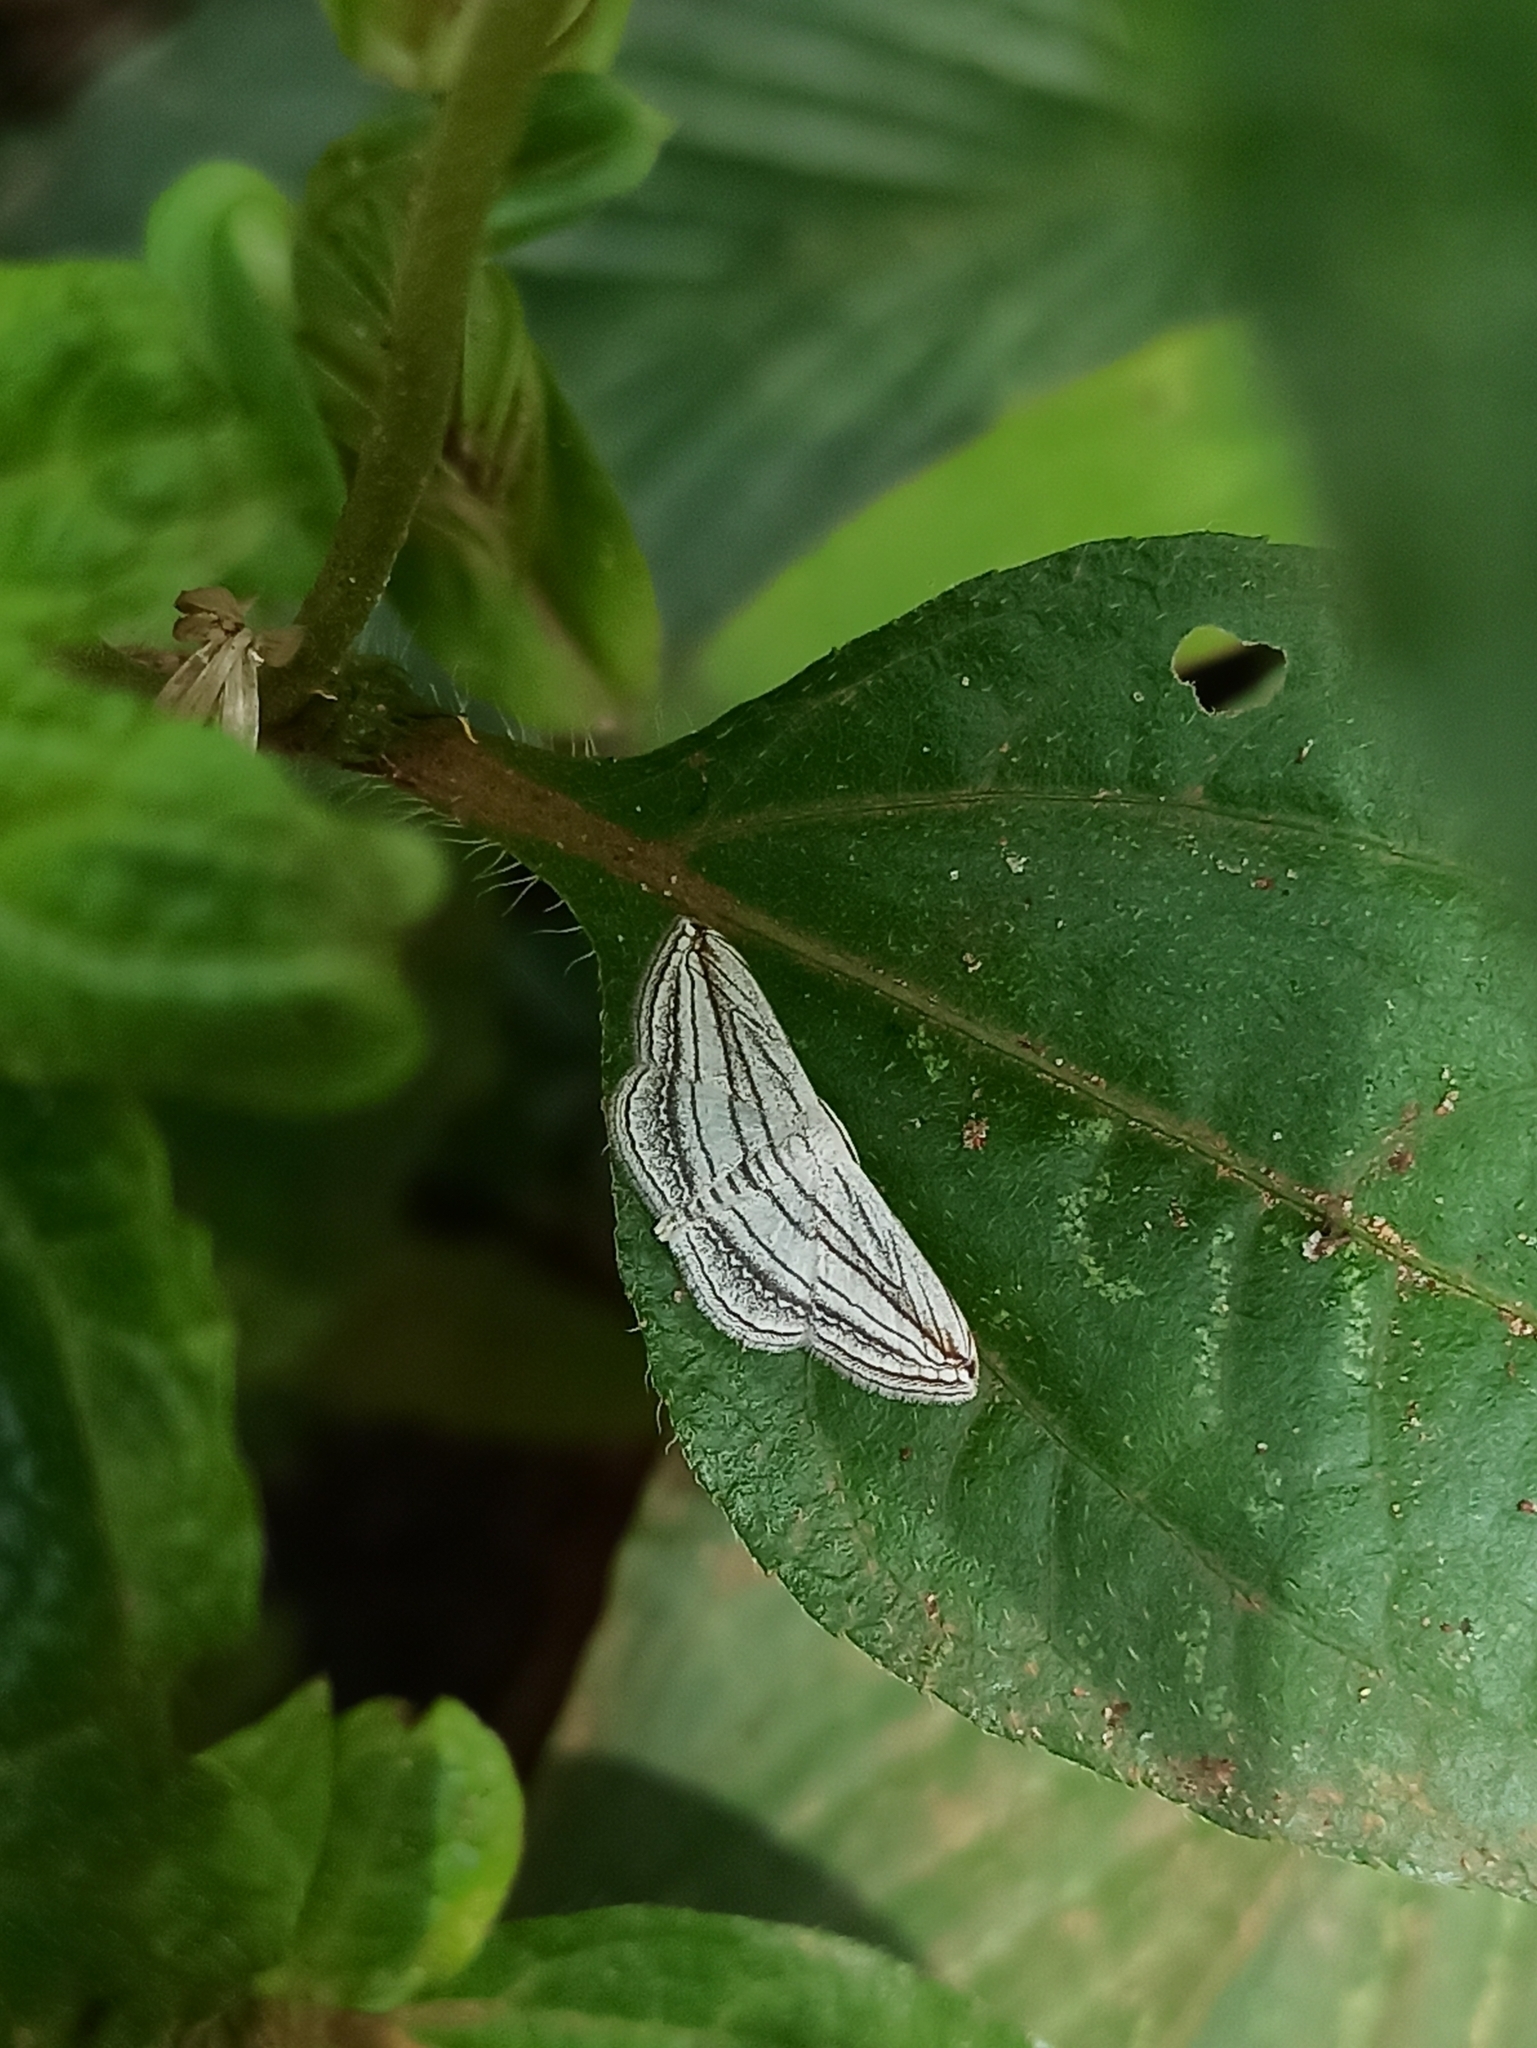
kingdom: Animalia
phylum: Arthropoda
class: Insecta
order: Lepidoptera
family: Geometridae
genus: Scopula
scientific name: Scopula opicata
